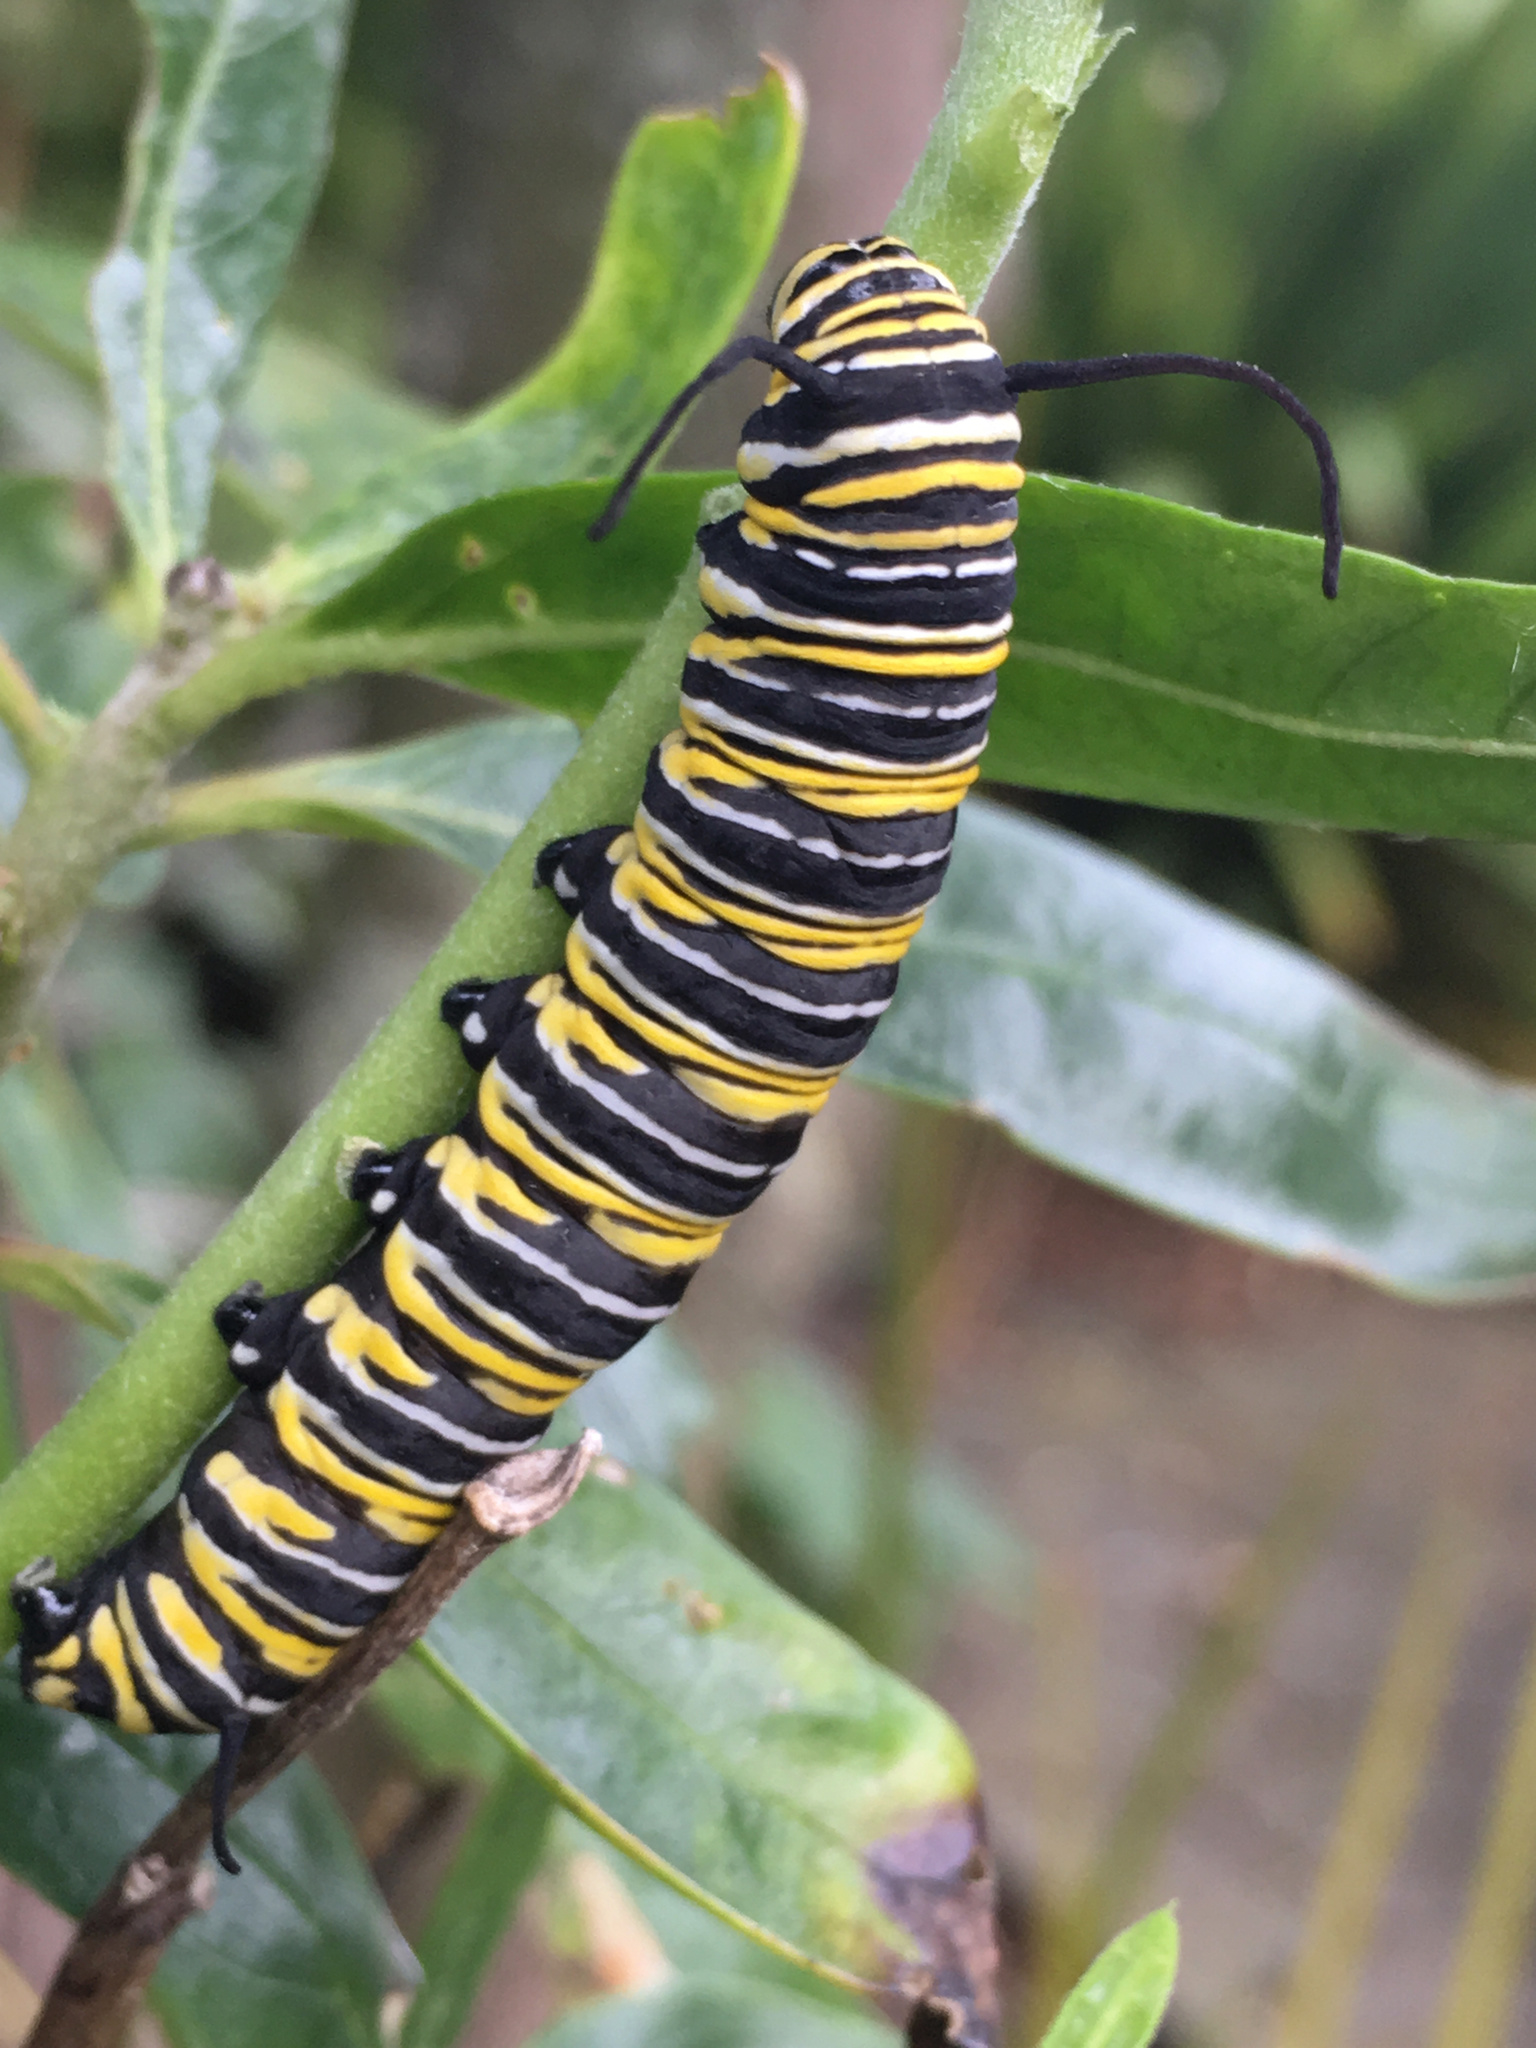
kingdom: Animalia
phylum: Arthropoda
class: Insecta
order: Lepidoptera
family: Nymphalidae
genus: Danaus
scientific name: Danaus plexippus
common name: Monarch
